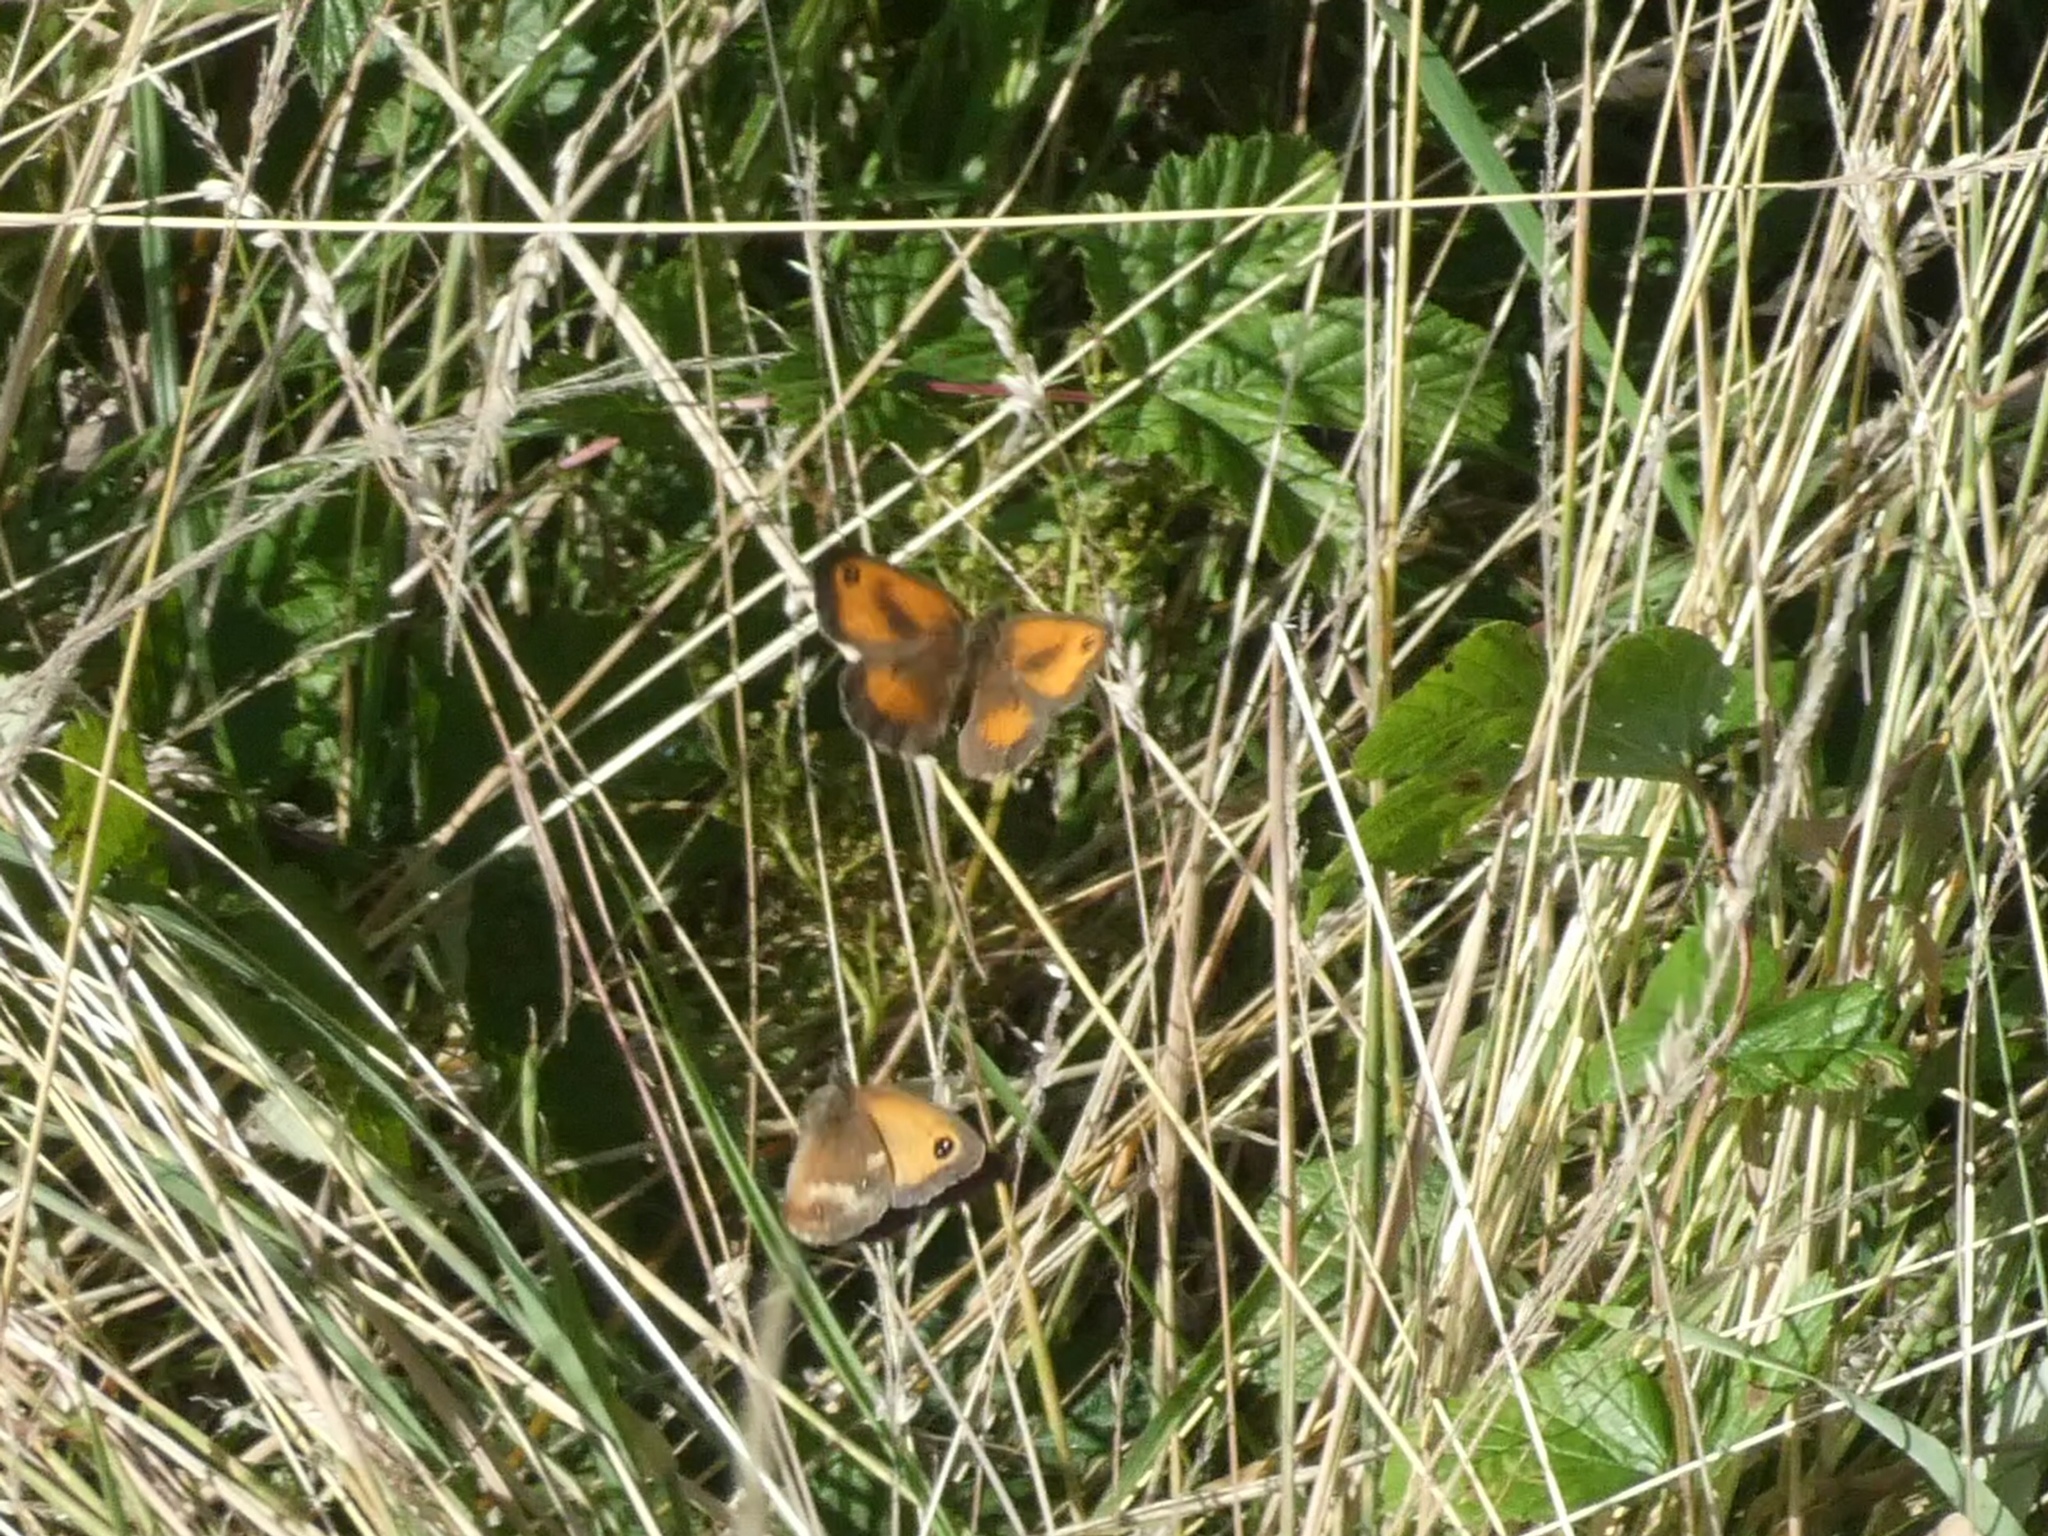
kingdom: Animalia
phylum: Arthropoda
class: Insecta
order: Lepidoptera
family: Nymphalidae
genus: Pyronia
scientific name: Pyronia tithonus
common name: Gatekeeper
